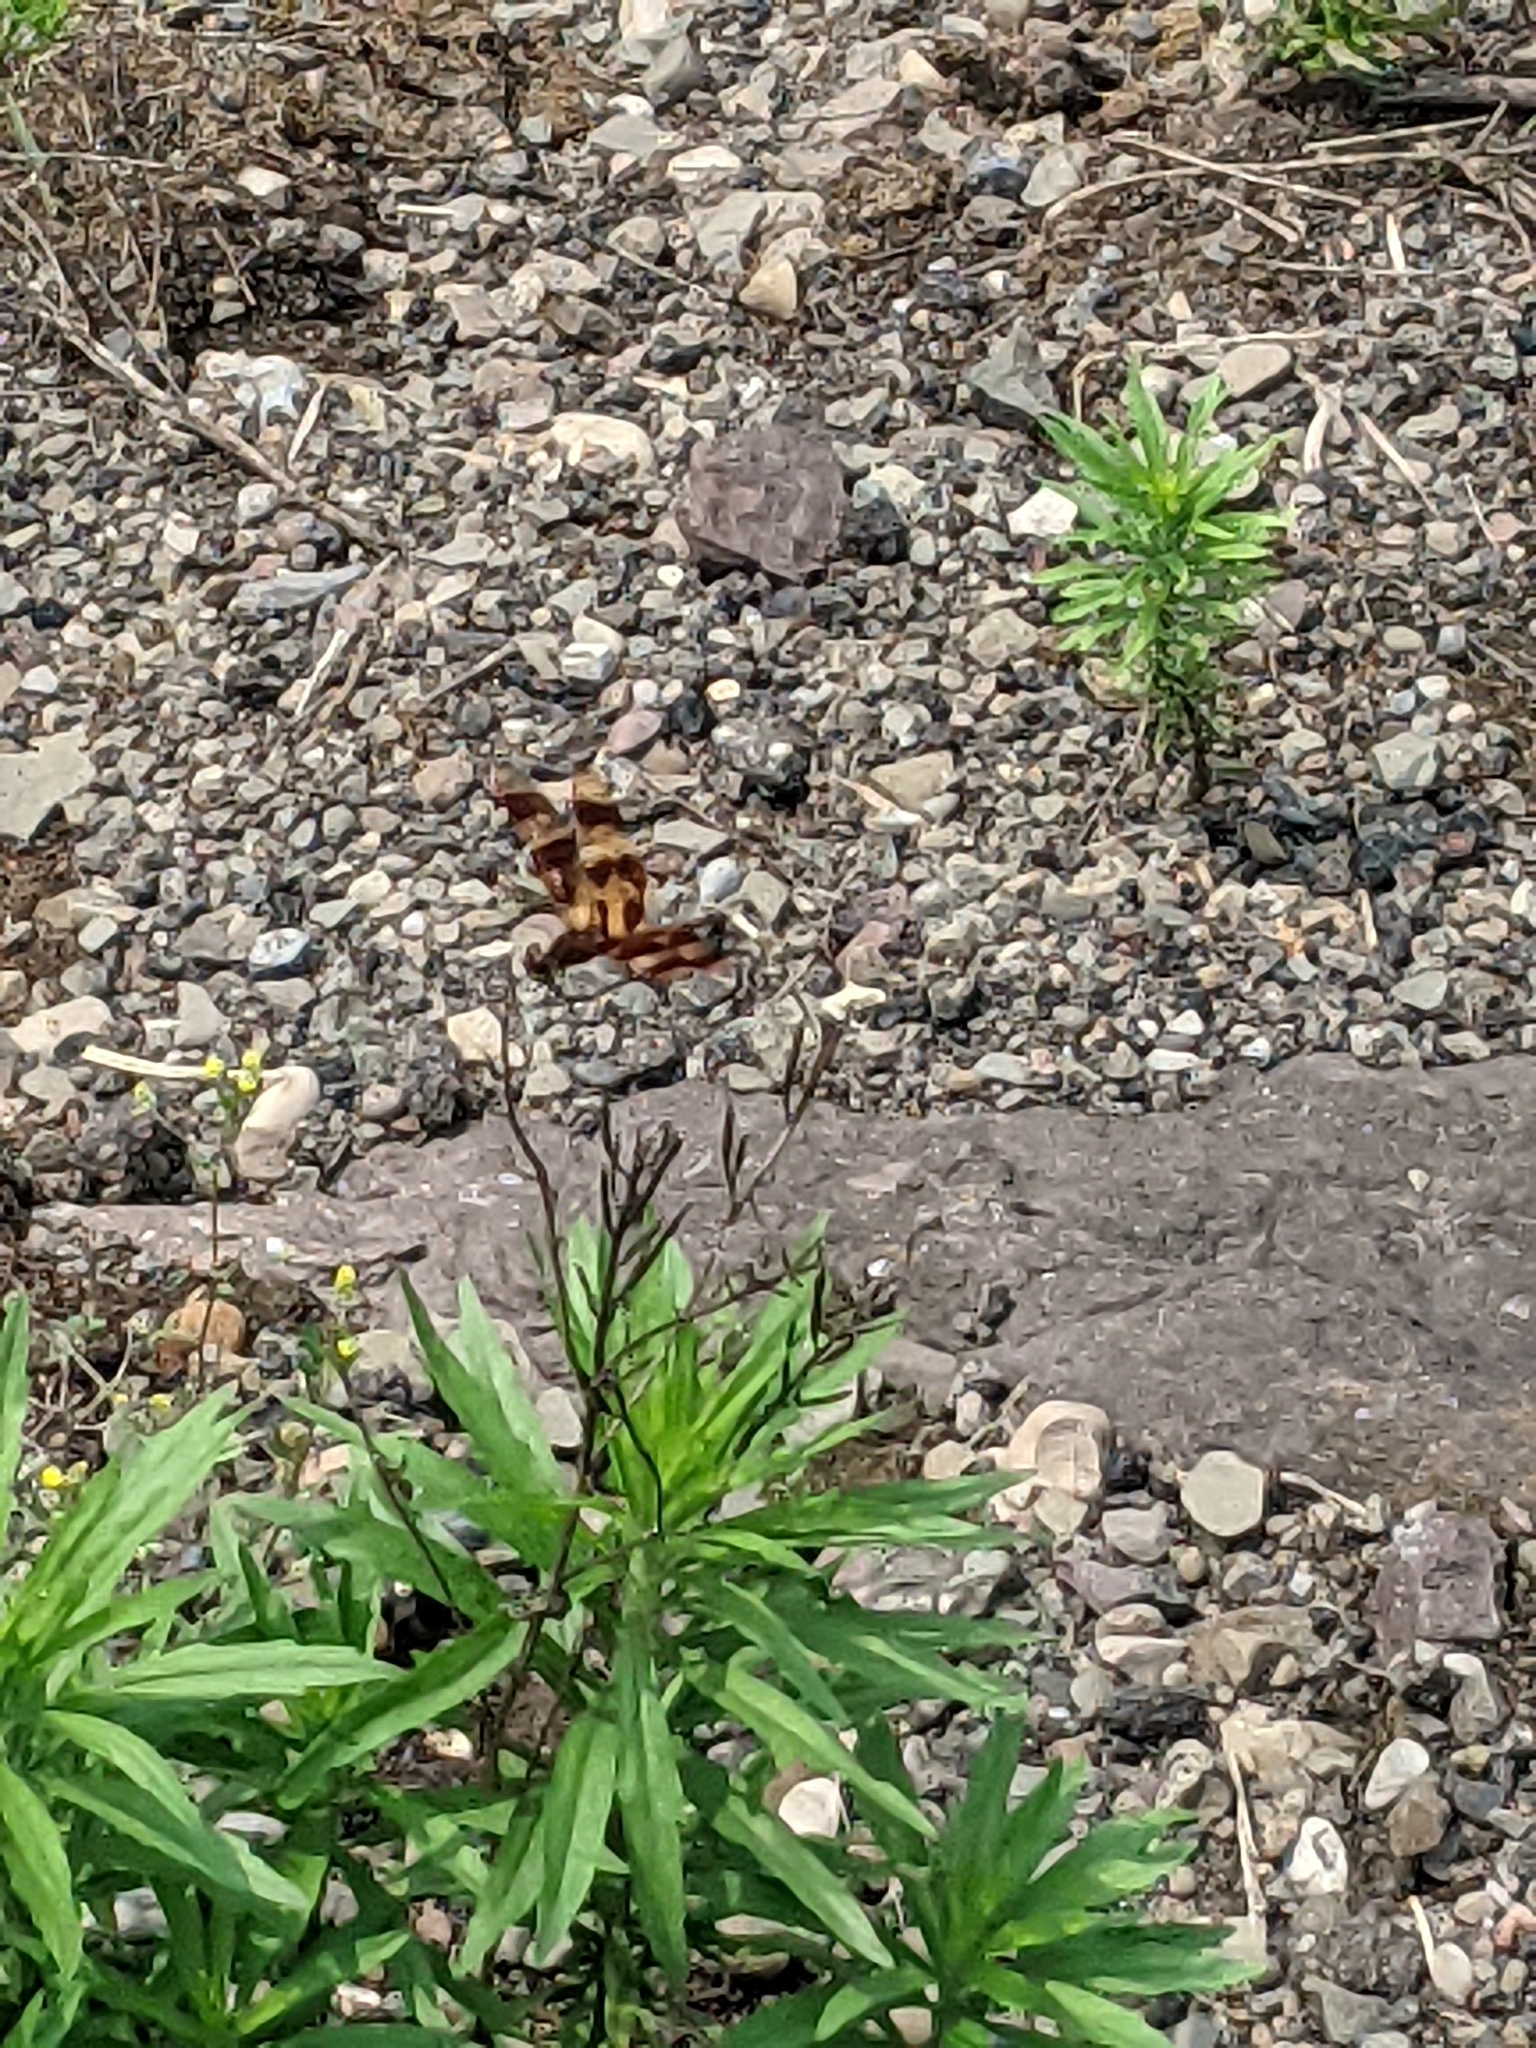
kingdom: Animalia
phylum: Arthropoda
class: Insecta
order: Odonata
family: Libellulidae
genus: Celithemis
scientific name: Celithemis eponina
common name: Halloween pennant
